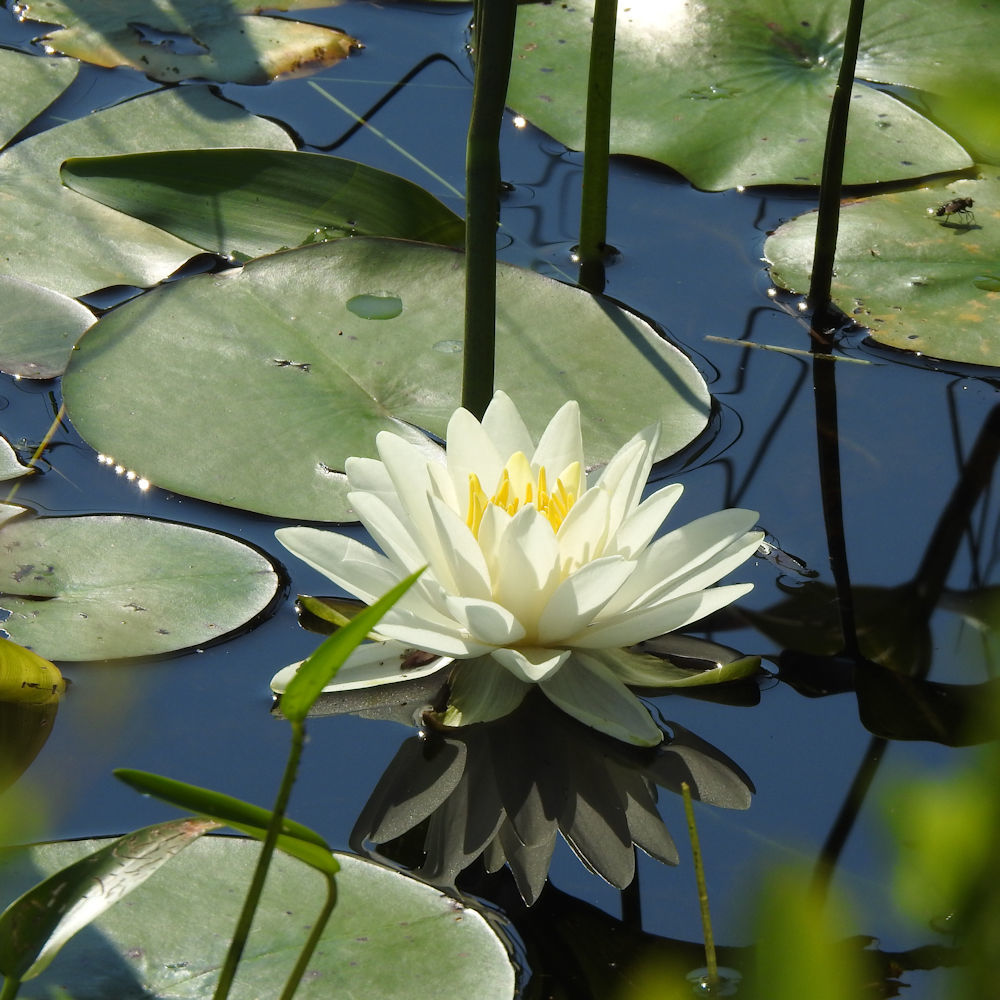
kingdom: Plantae
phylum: Tracheophyta
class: Magnoliopsida
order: Nymphaeales
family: Nymphaeaceae
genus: Nymphaea
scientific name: Nymphaea odorata
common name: Fragrant water-lily
